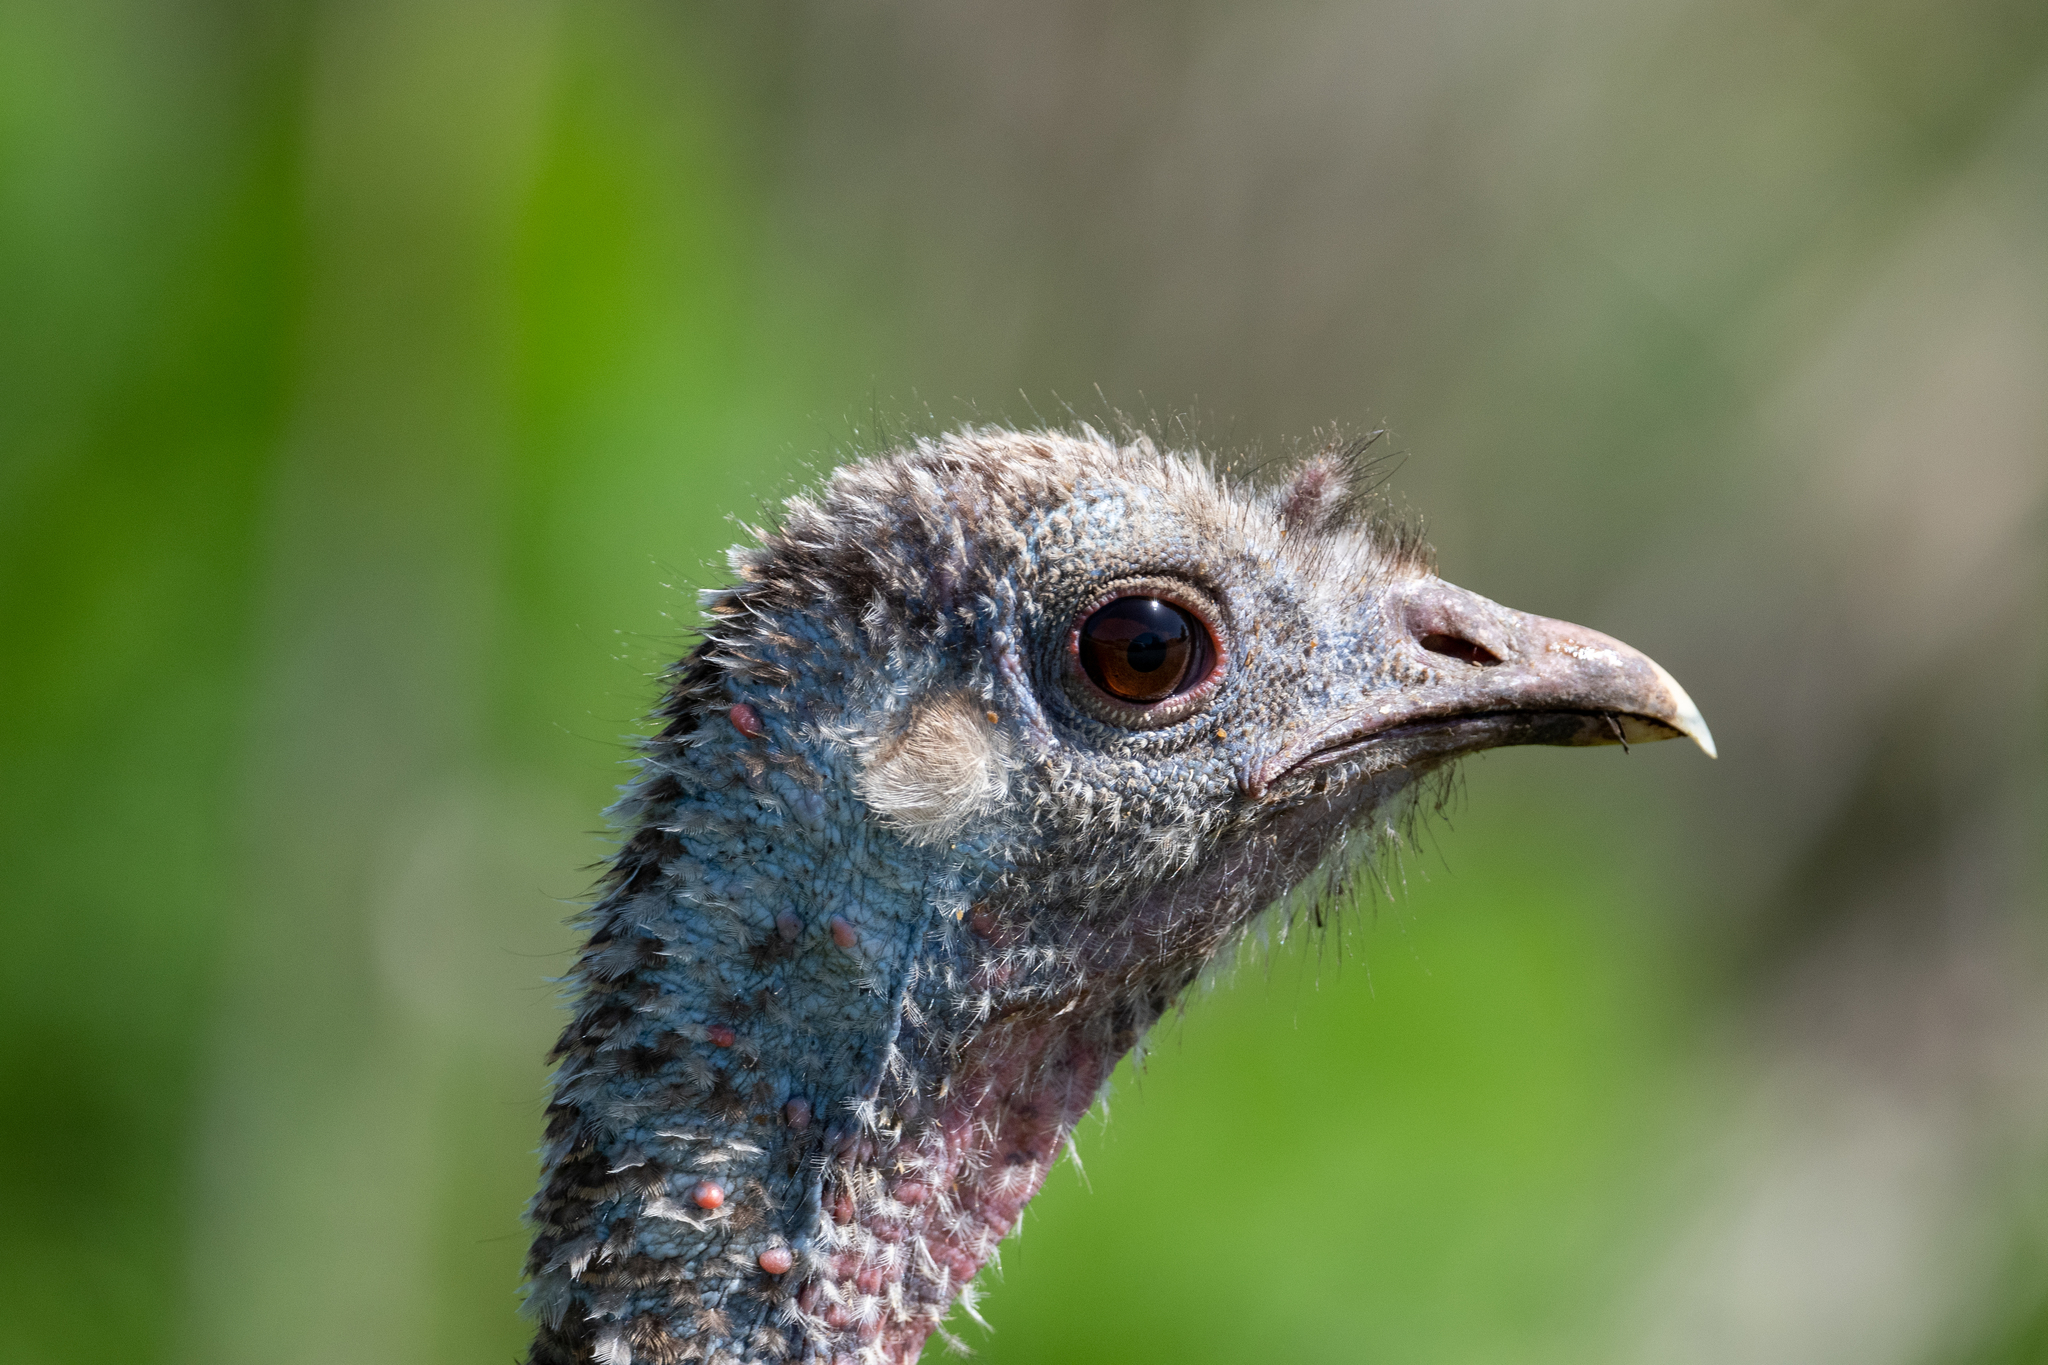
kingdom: Animalia
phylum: Chordata
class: Aves
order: Galliformes
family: Phasianidae
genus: Meleagris
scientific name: Meleagris gallopavo
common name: Wild turkey
